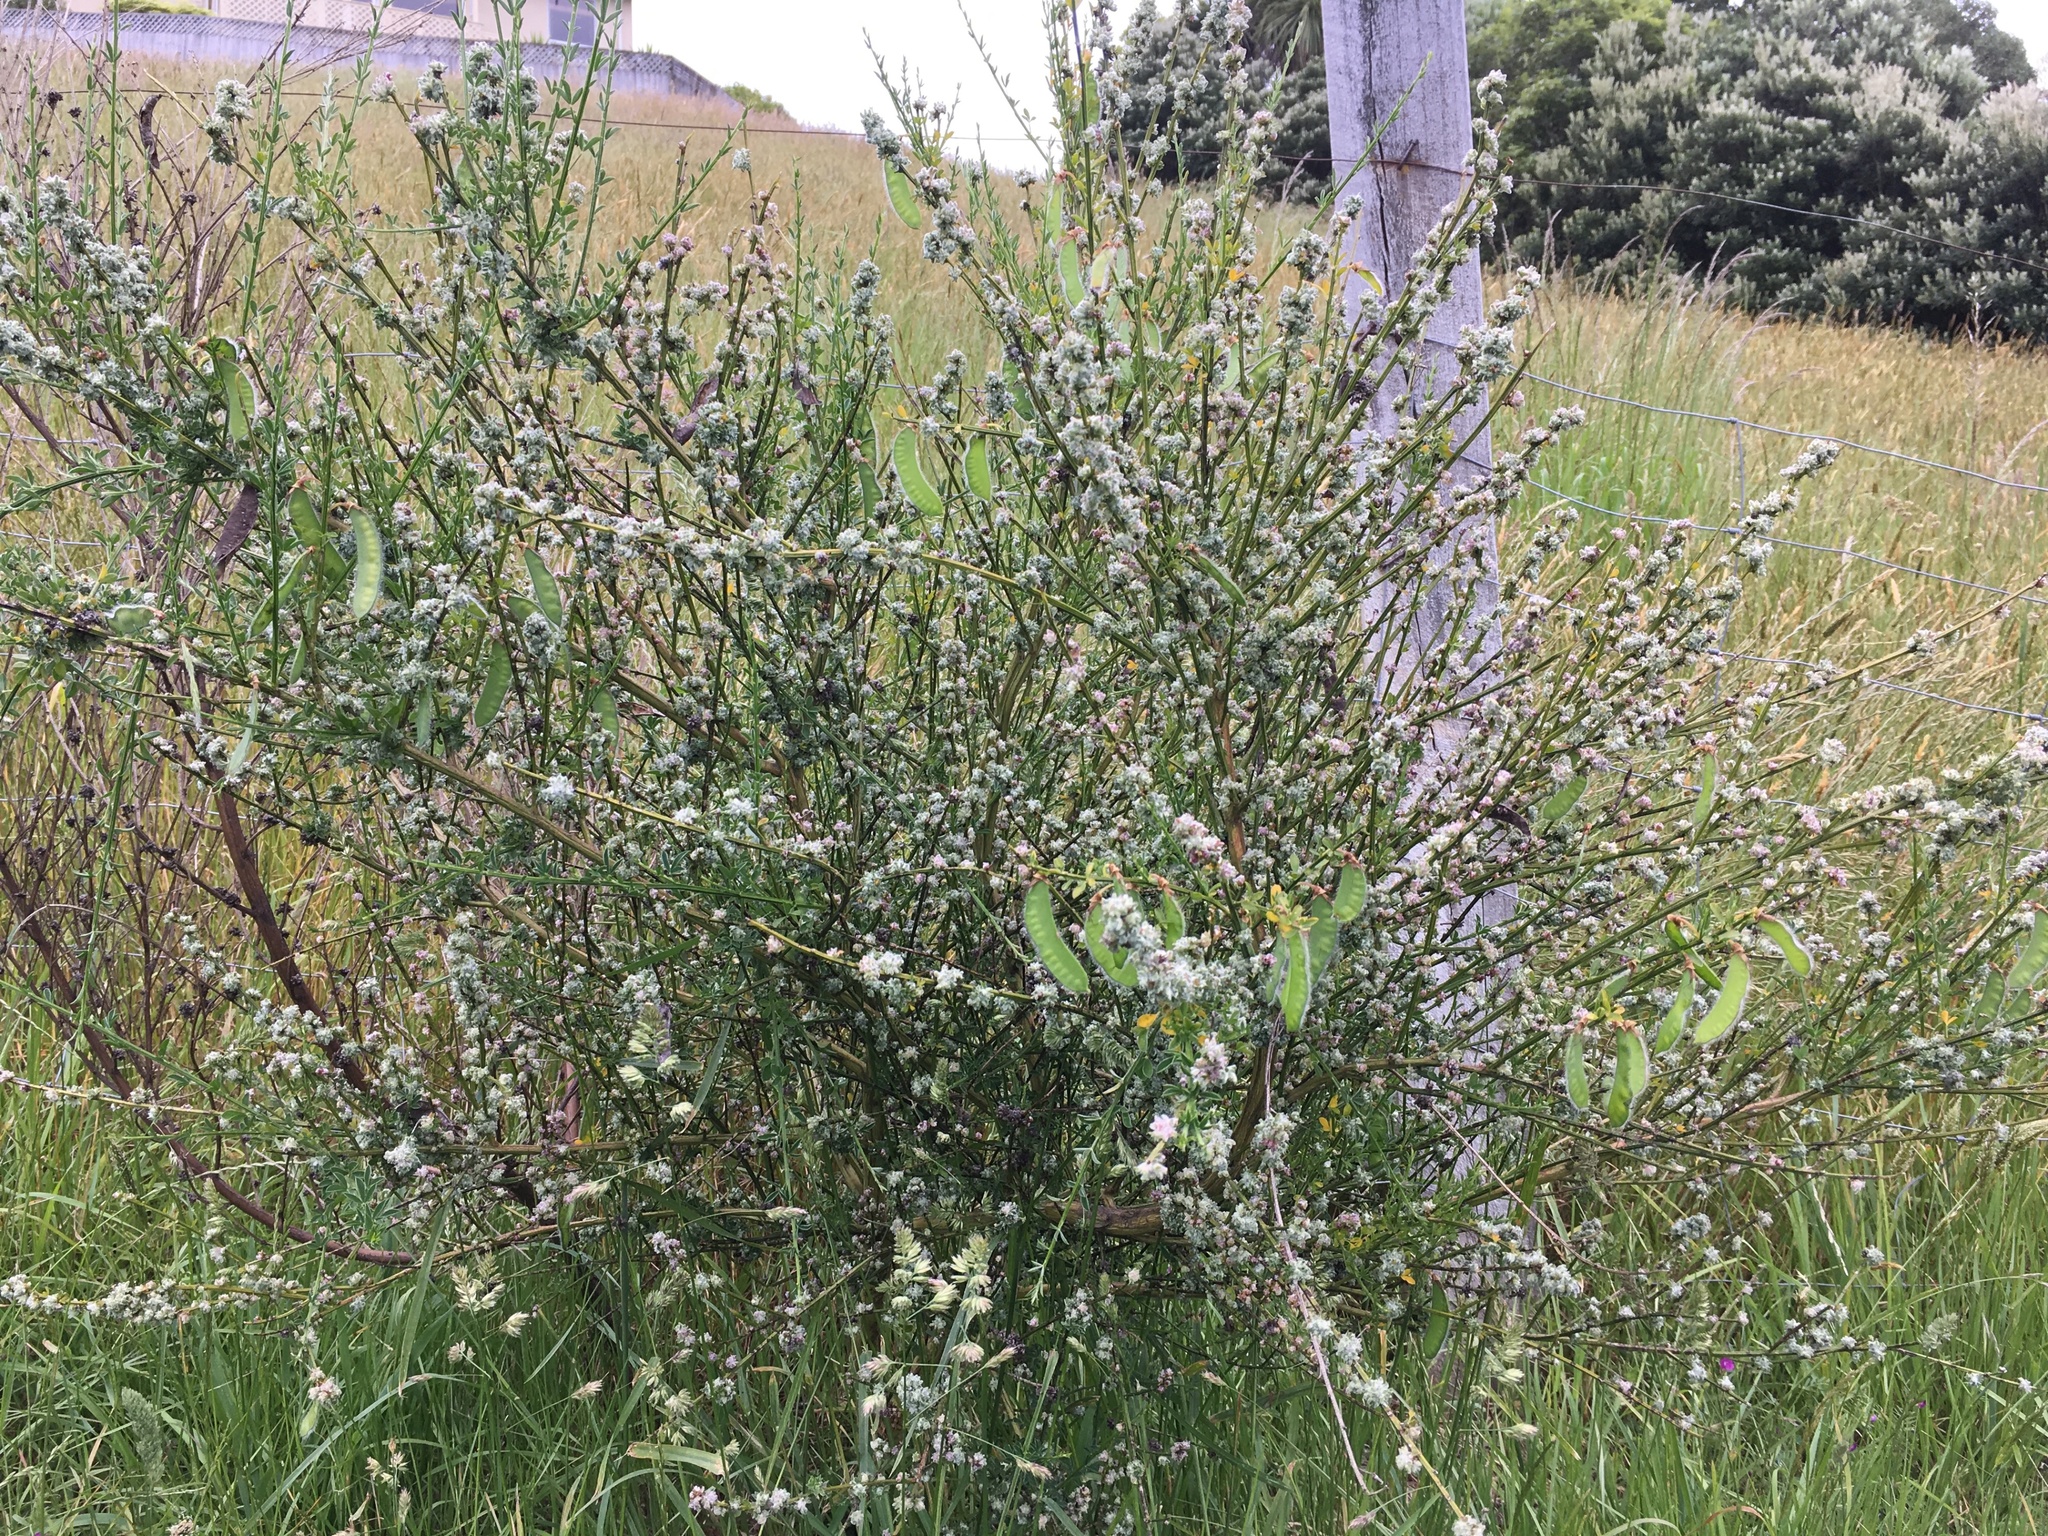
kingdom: Animalia
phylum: Arthropoda
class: Arachnida
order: Trombidiformes
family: Eriophyidae
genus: Aceria
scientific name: Aceria genistae
